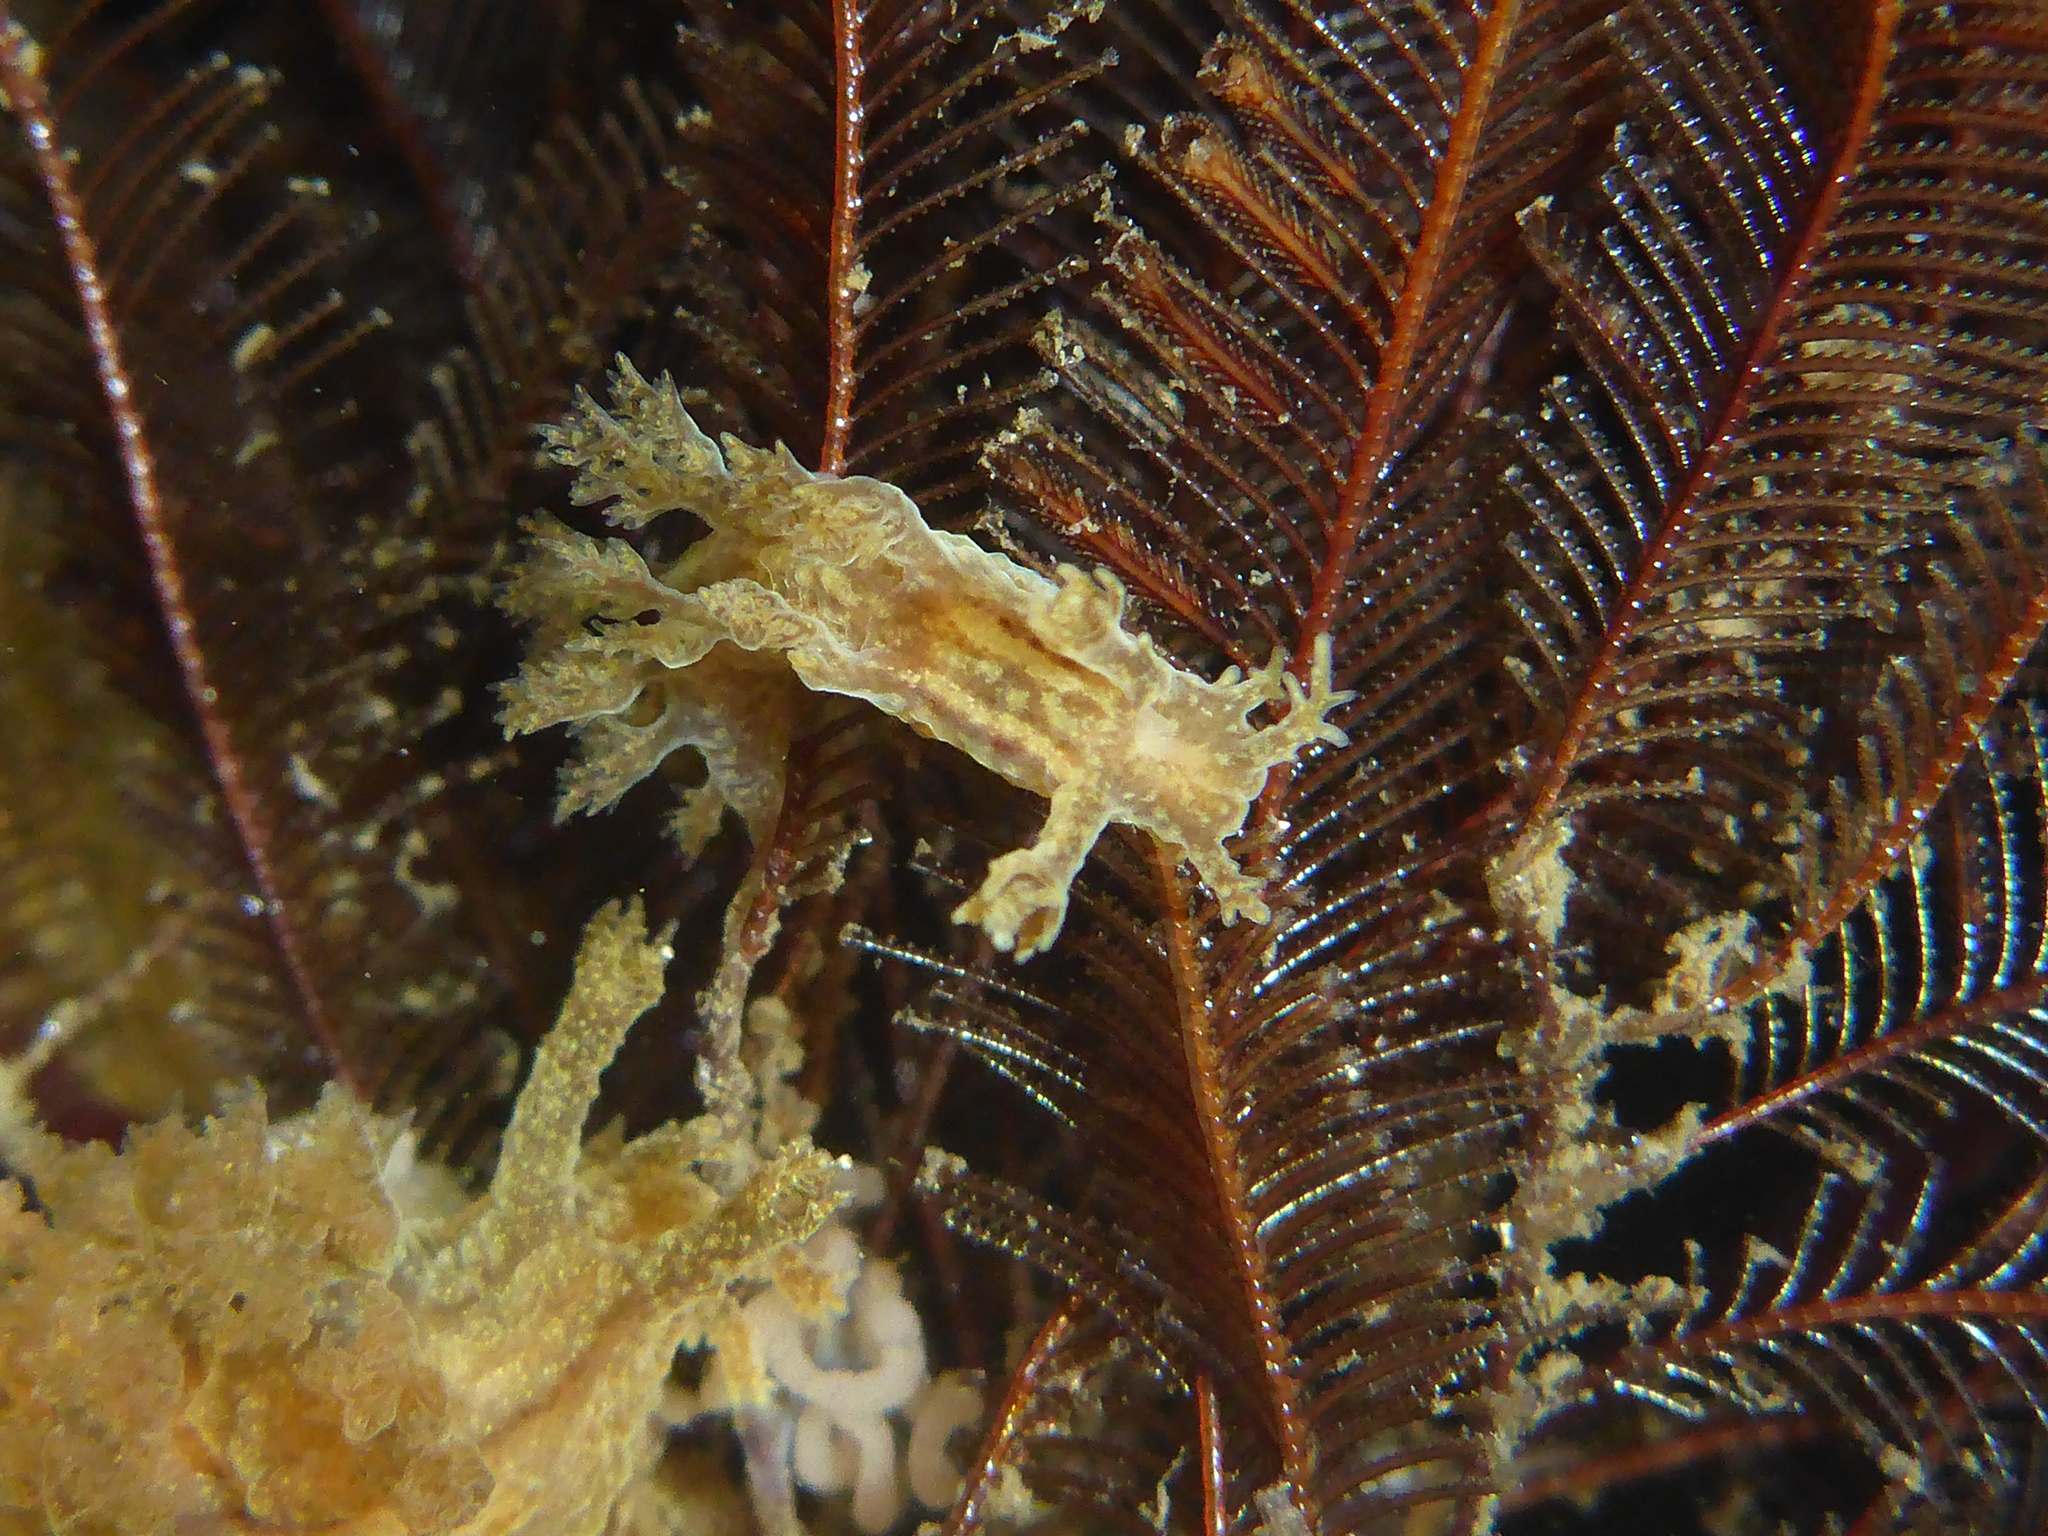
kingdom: Animalia
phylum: Mollusca
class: Gastropoda
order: Nudibranchia
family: Dendronotidae
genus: Dendronotus
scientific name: Dendronotus subramosus
